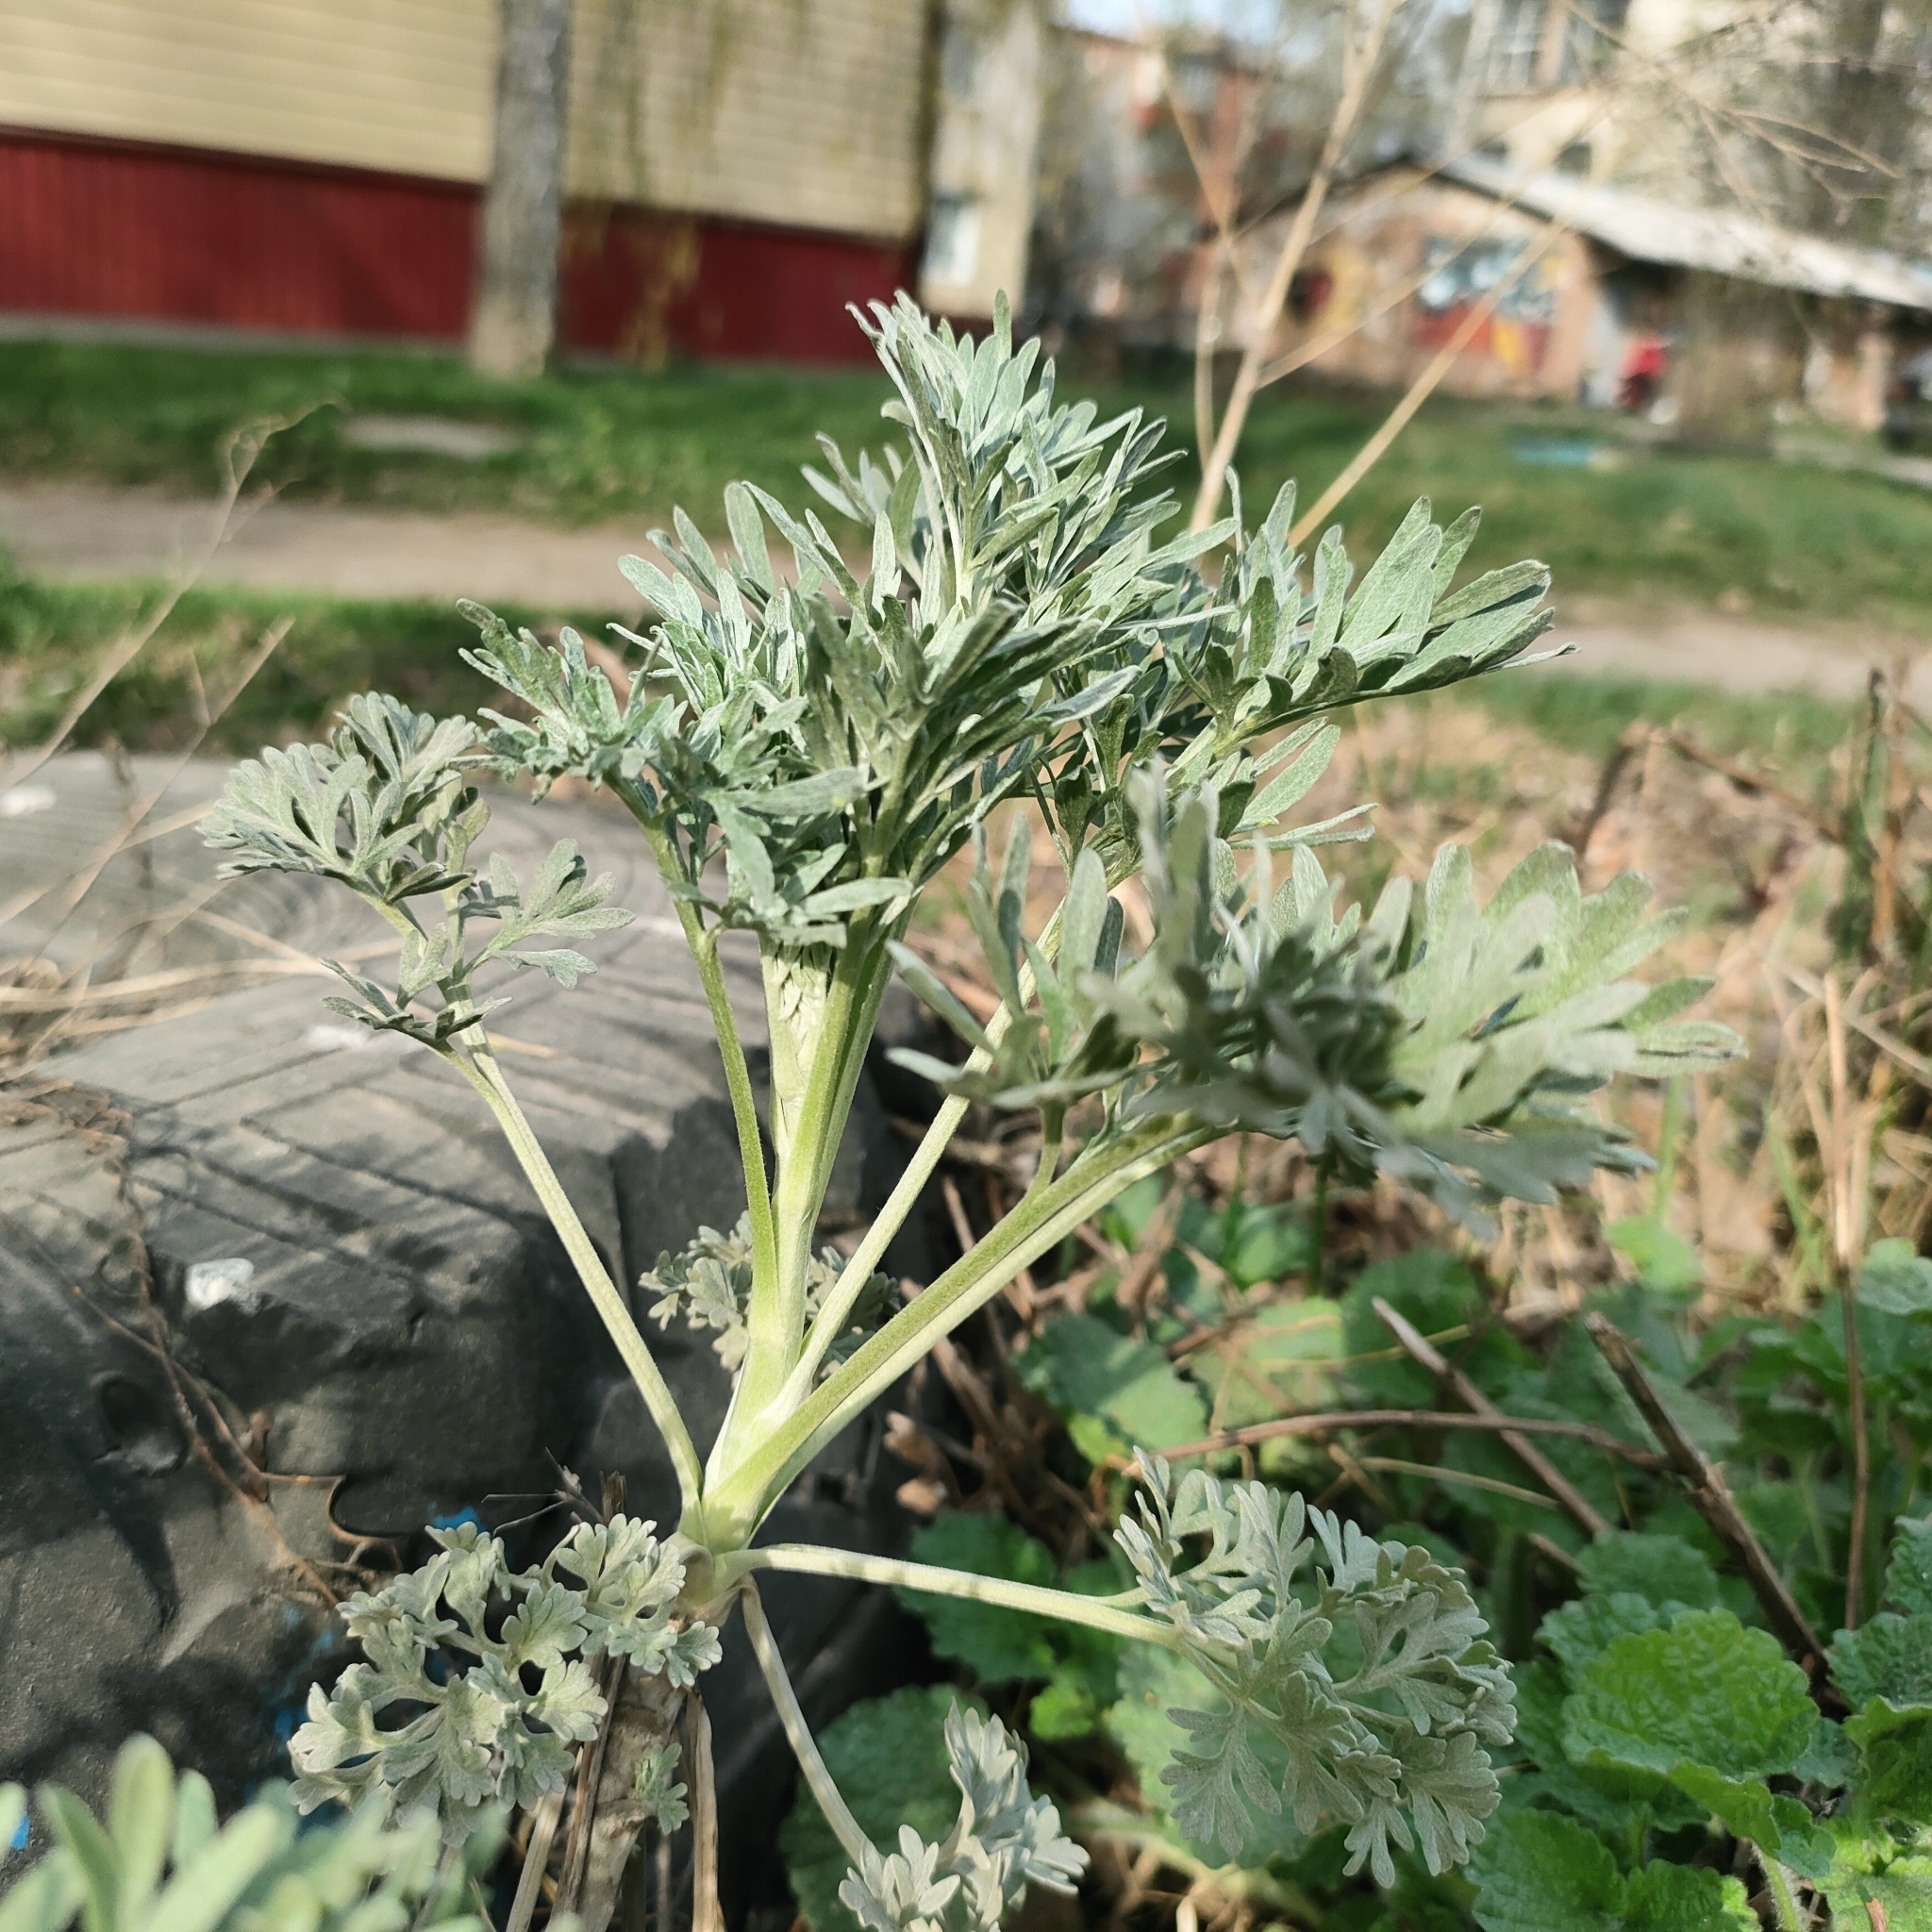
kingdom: Plantae
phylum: Tracheophyta
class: Magnoliopsida
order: Asterales
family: Asteraceae
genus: Artemisia
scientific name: Artemisia absinthium
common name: Wormwood
